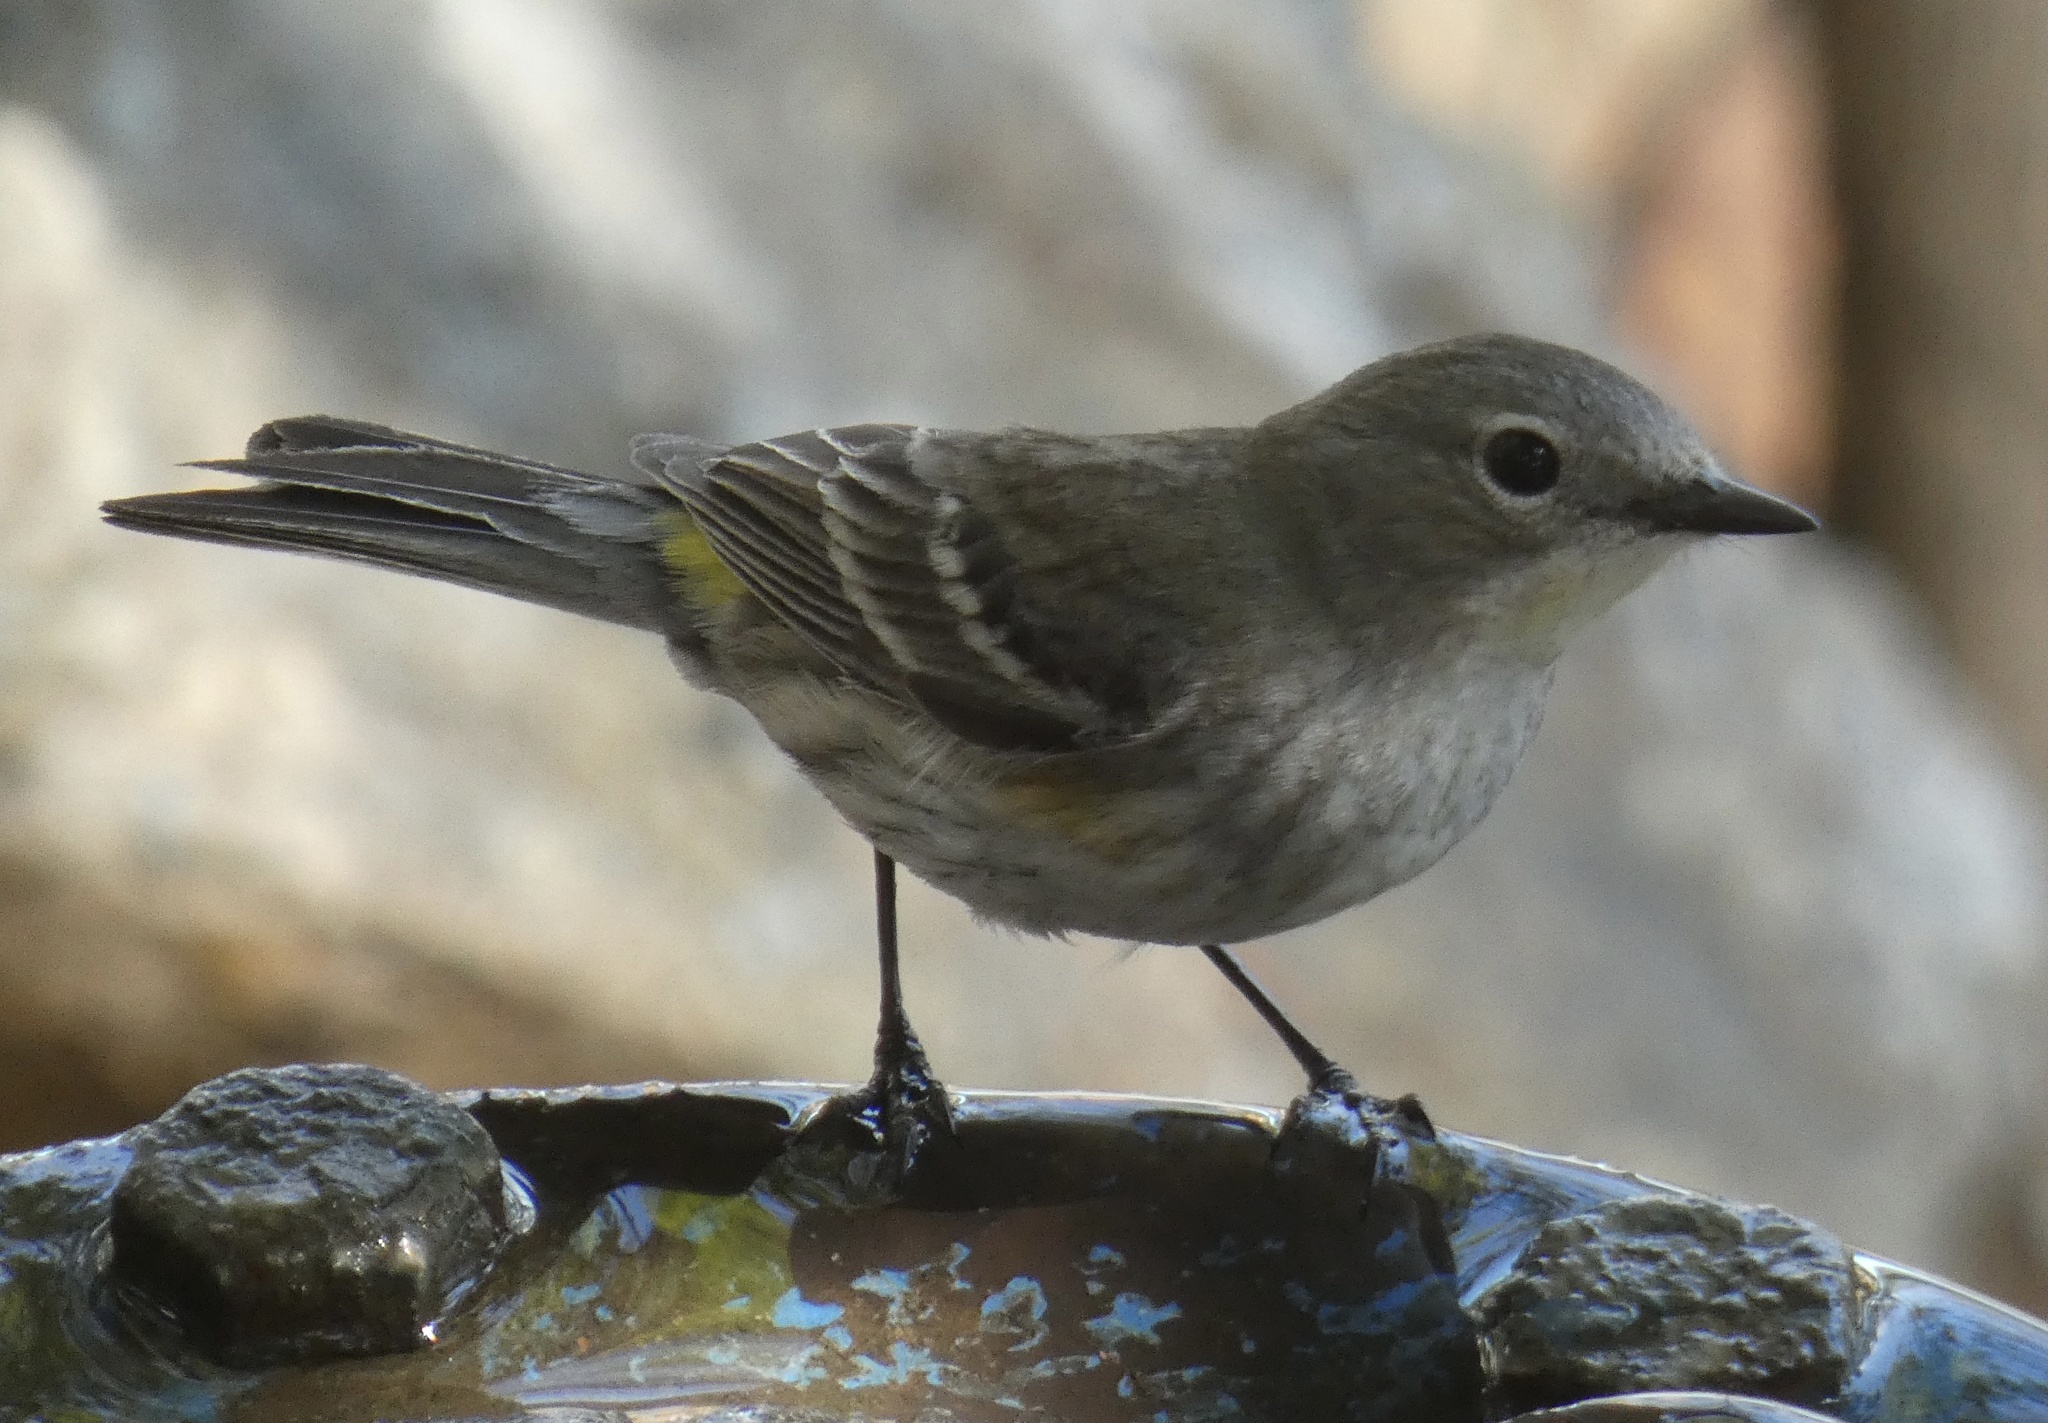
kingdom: Animalia
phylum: Chordata
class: Aves
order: Passeriformes
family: Parulidae
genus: Setophaga
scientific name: Setophaga coronata
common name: Myrtle warbler
